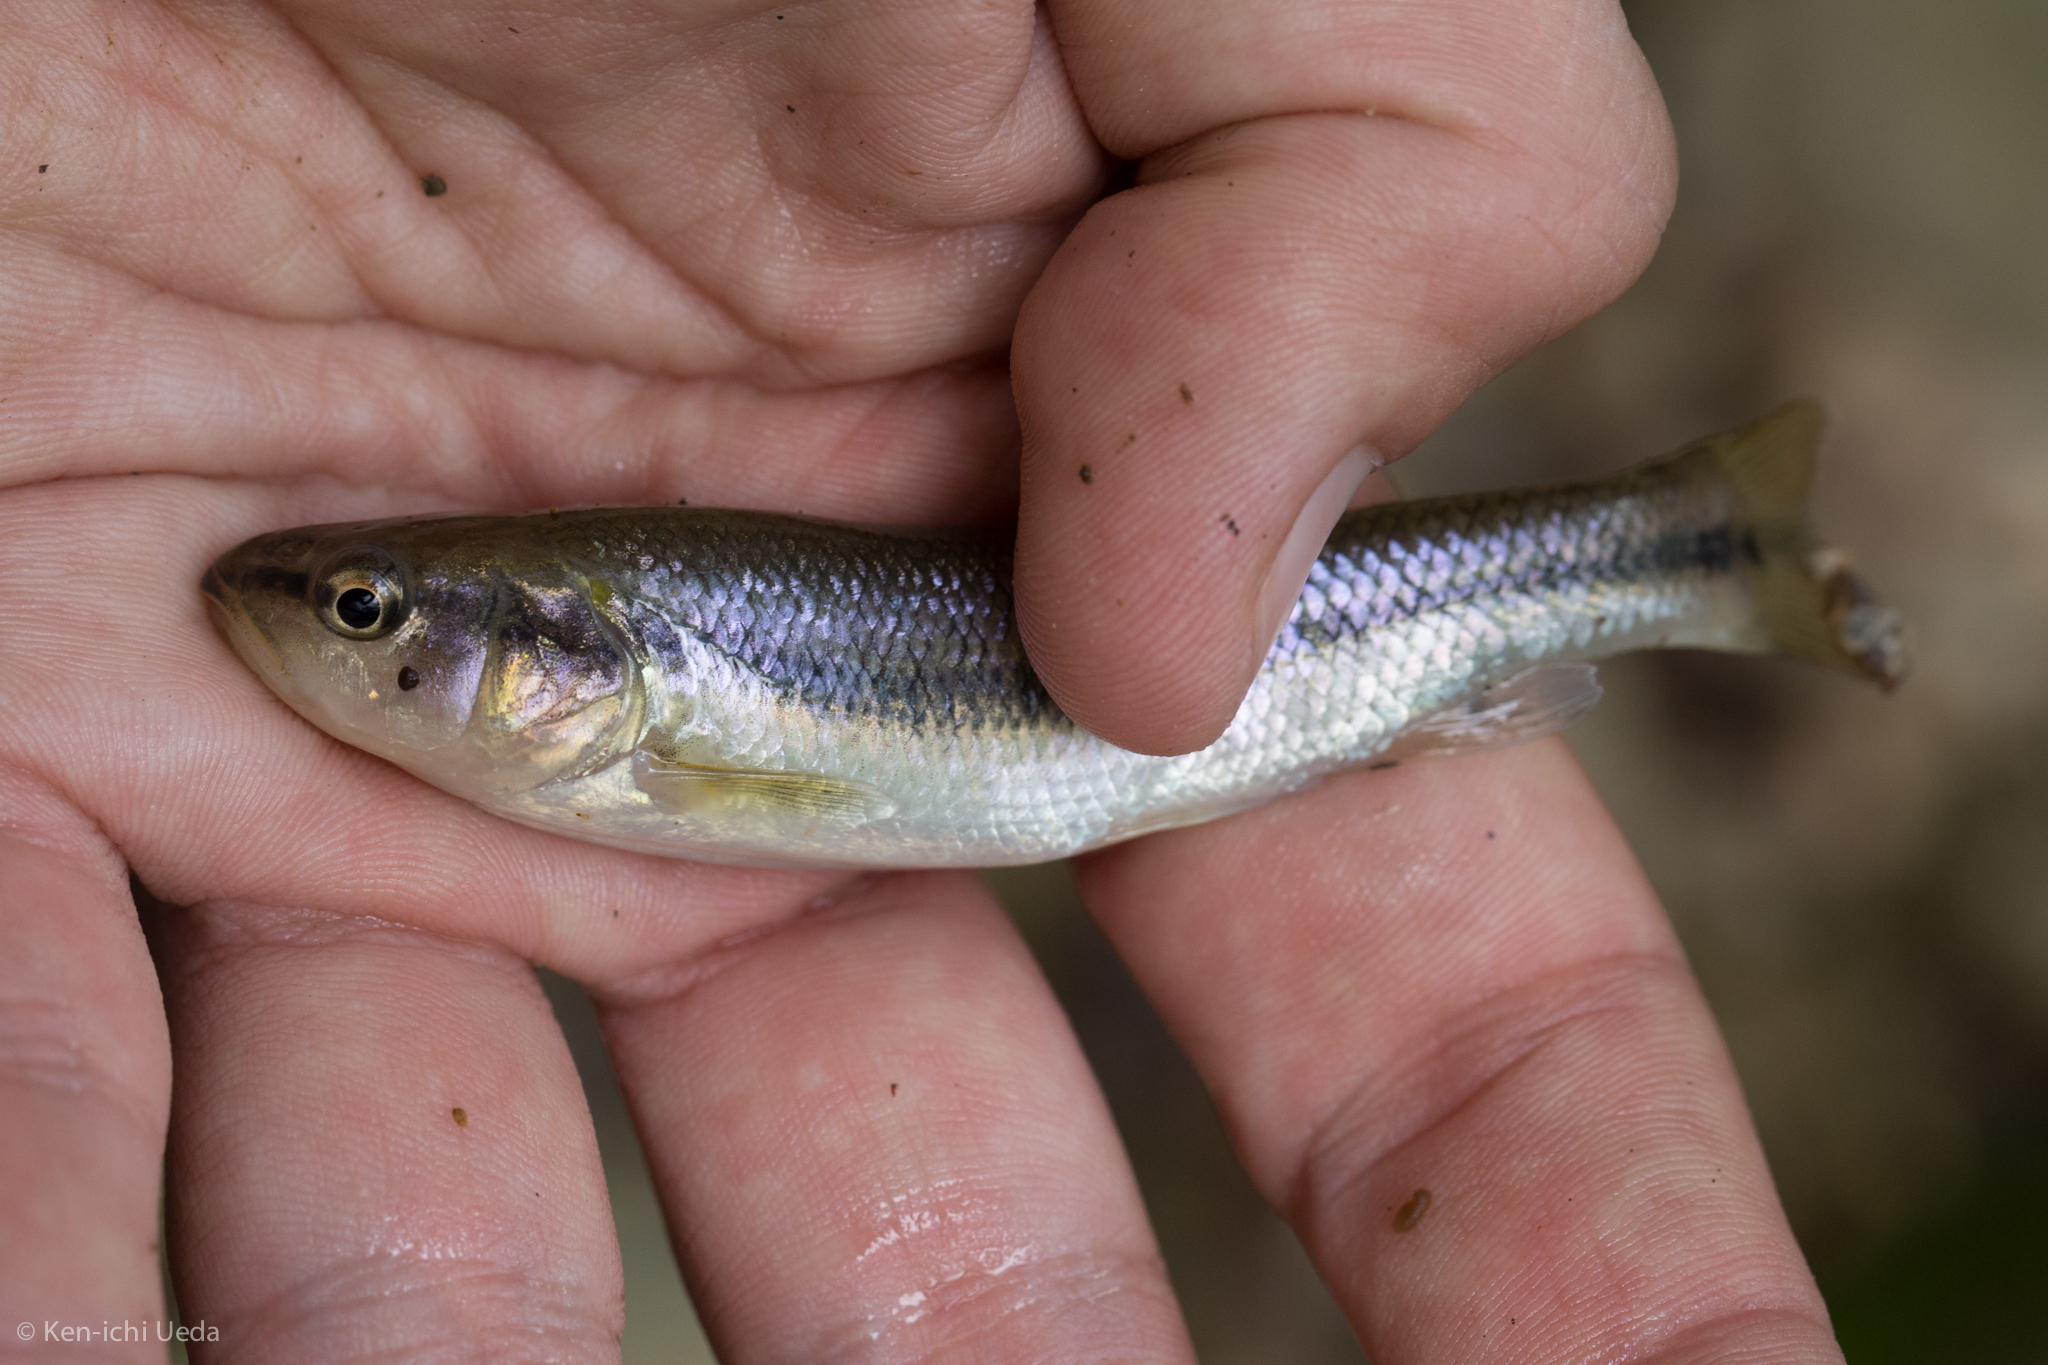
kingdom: Animalia
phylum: Chordata
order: Cypriniformes
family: Cyprinidae
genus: Semotilus
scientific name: Semotilus atromaculatus
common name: Creek chub
